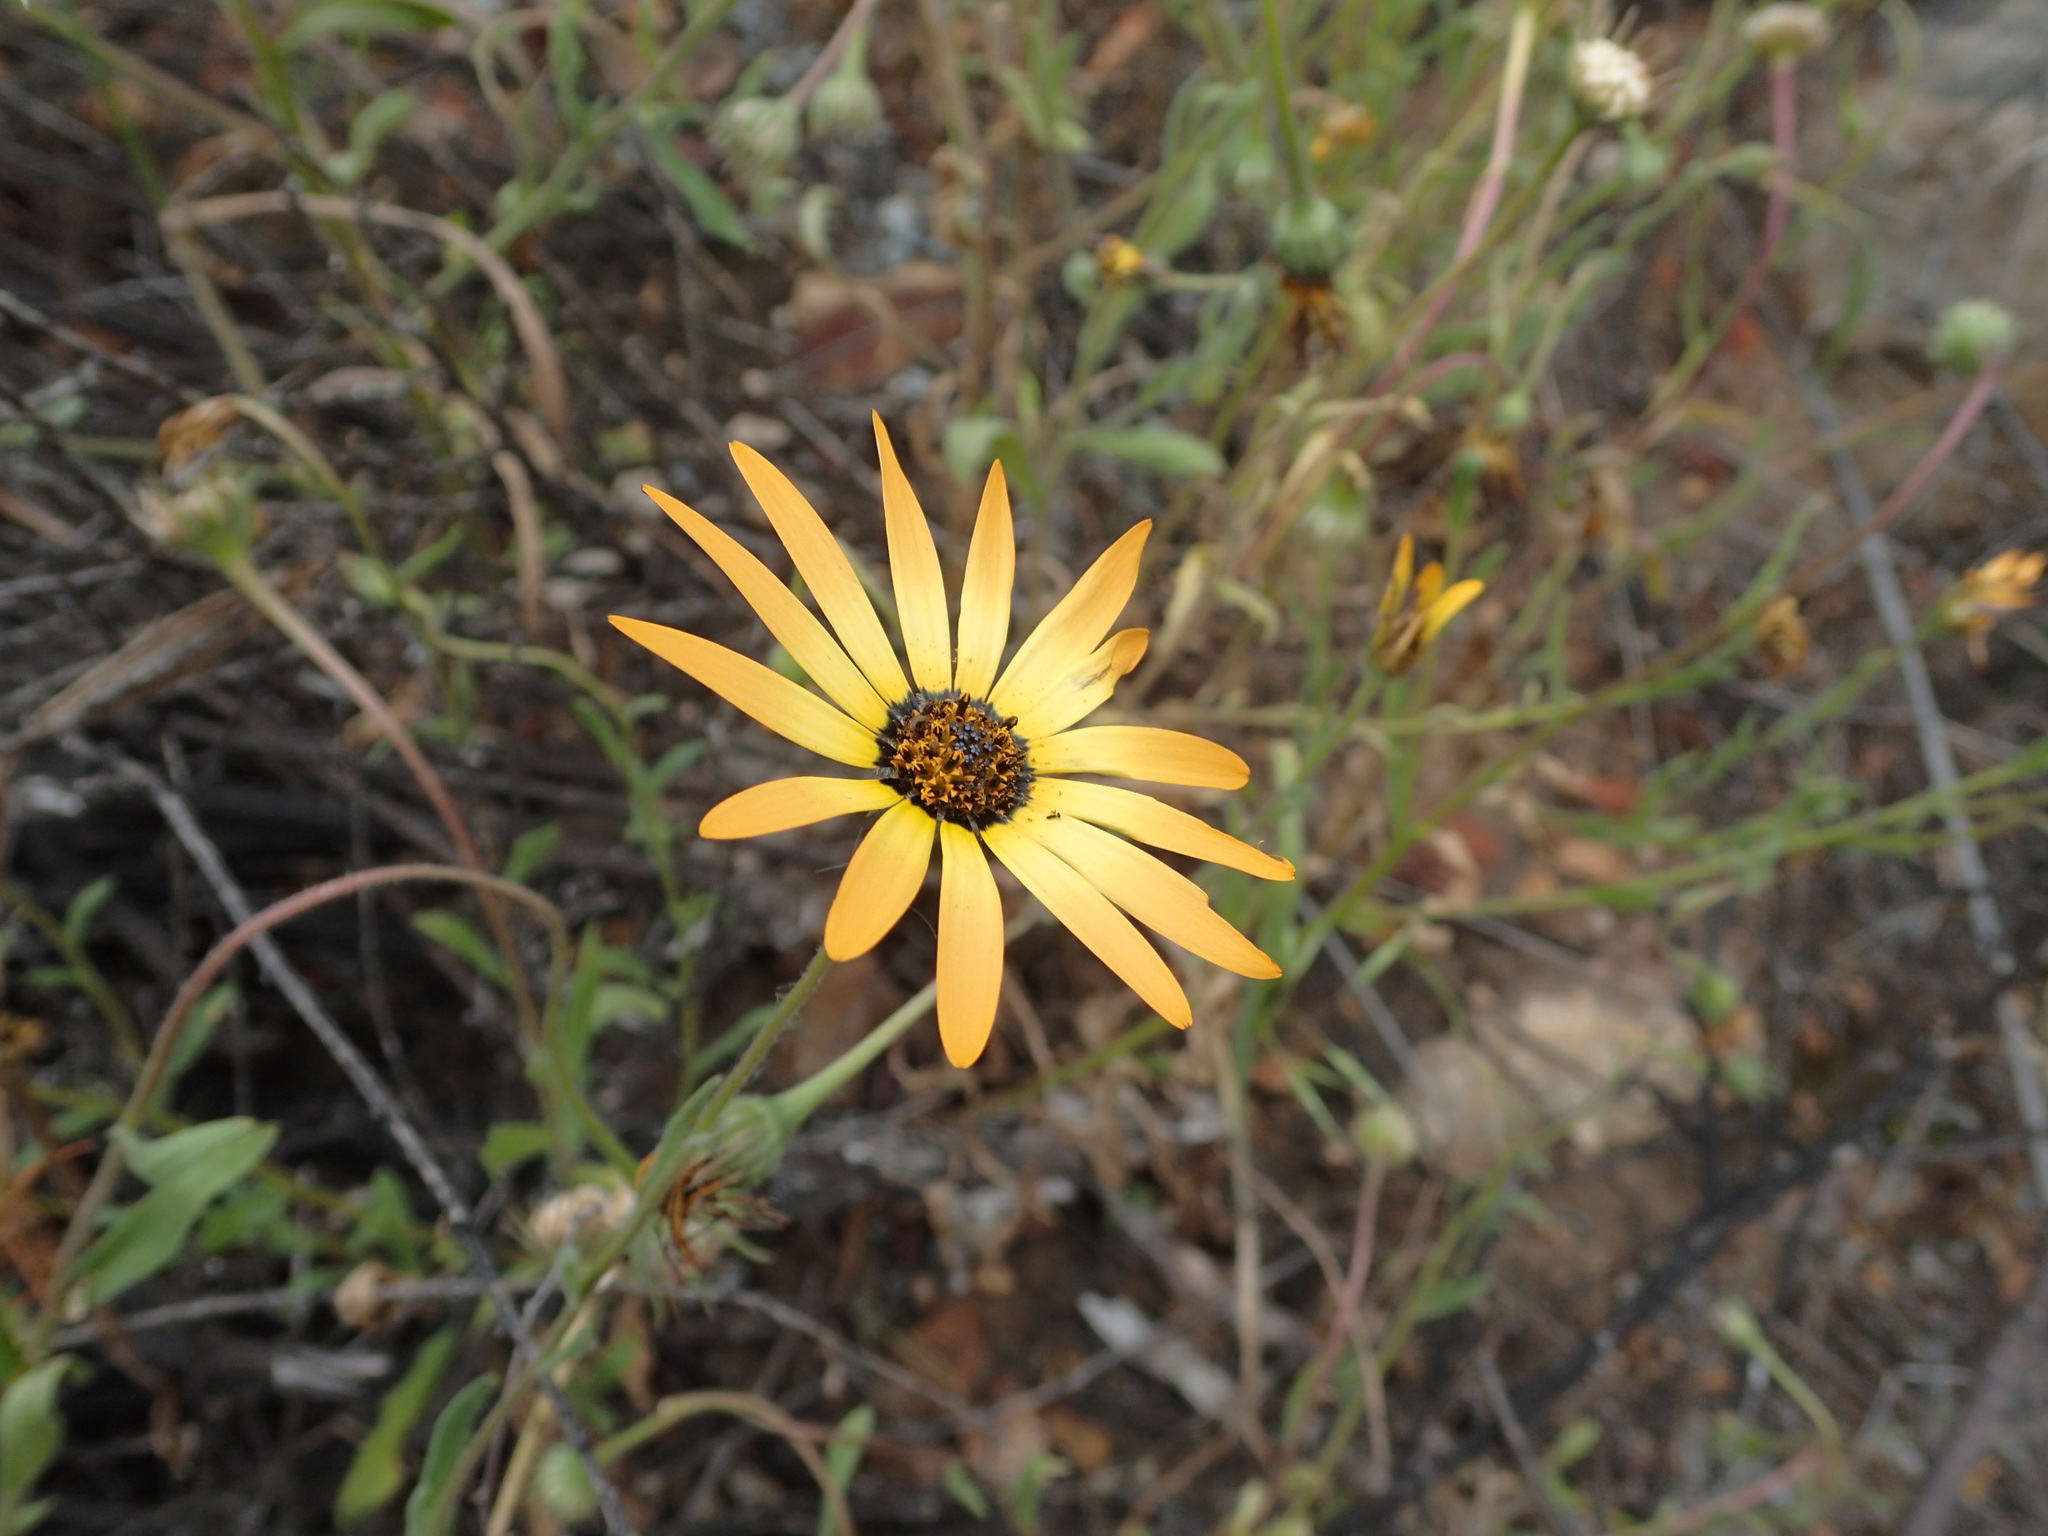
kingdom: Plantae
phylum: Tracheophyta
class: Magnoliopsida
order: Asterales
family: Asteraceae
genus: Dimorphotheca
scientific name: Dimorphotheca sinuata
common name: Glandular cape marigold
